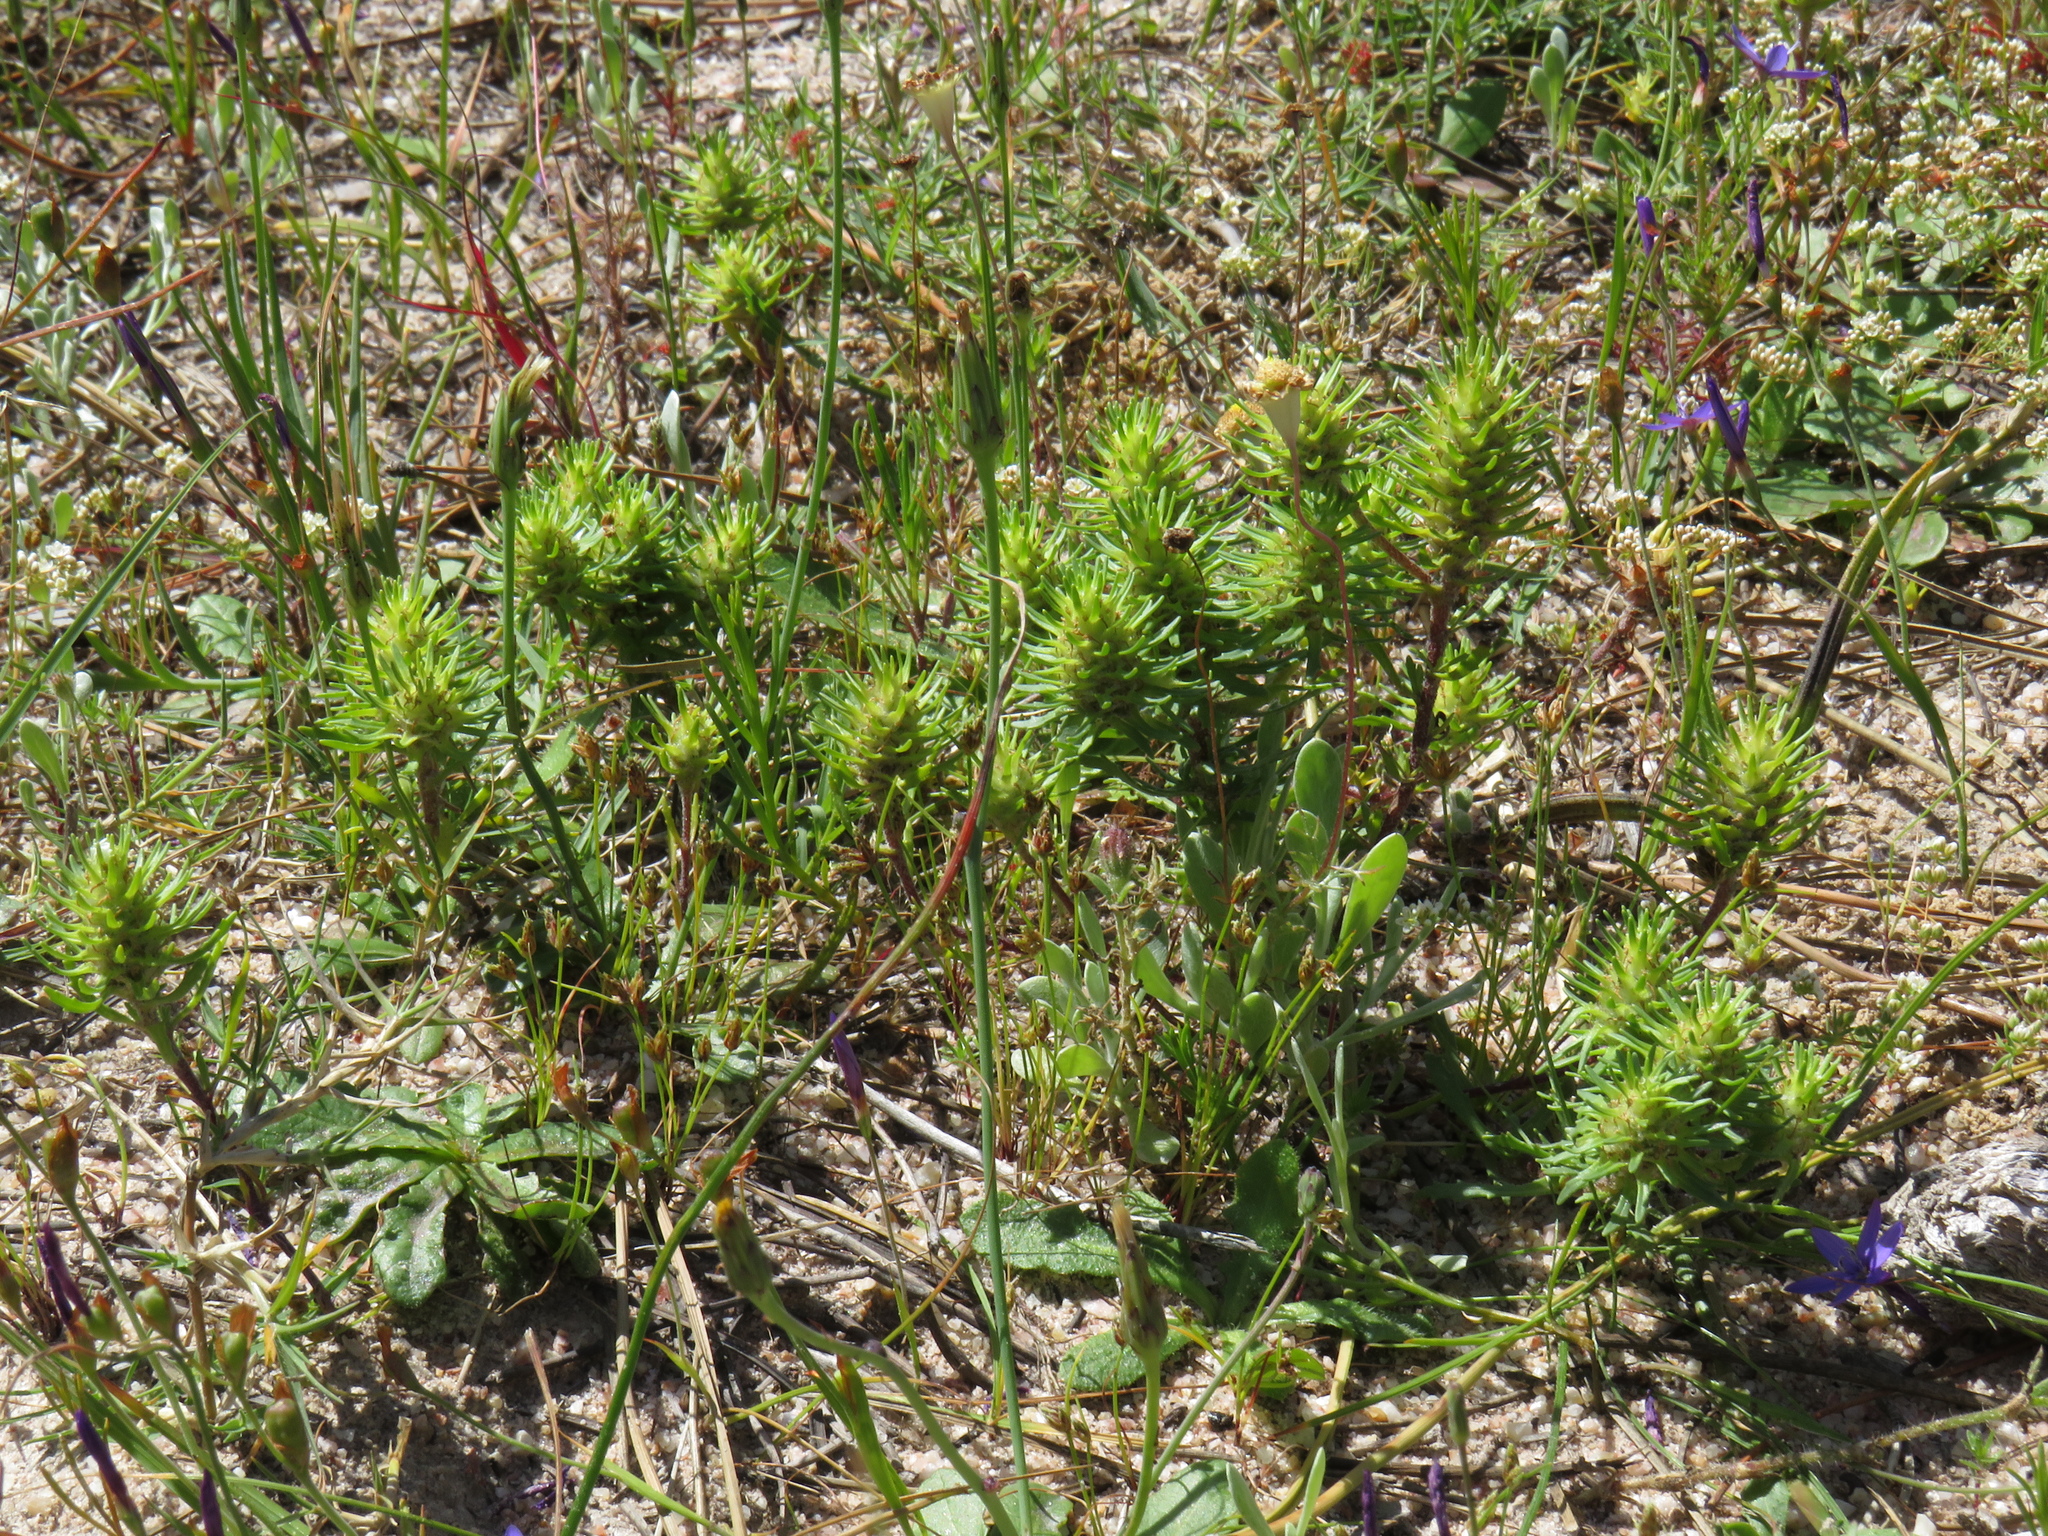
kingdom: Plantae
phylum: Tracheophyta
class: Magnoliopsida
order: Lamiales
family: Scrophulariaceae
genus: Dischisma
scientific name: Dischisma capitatum
